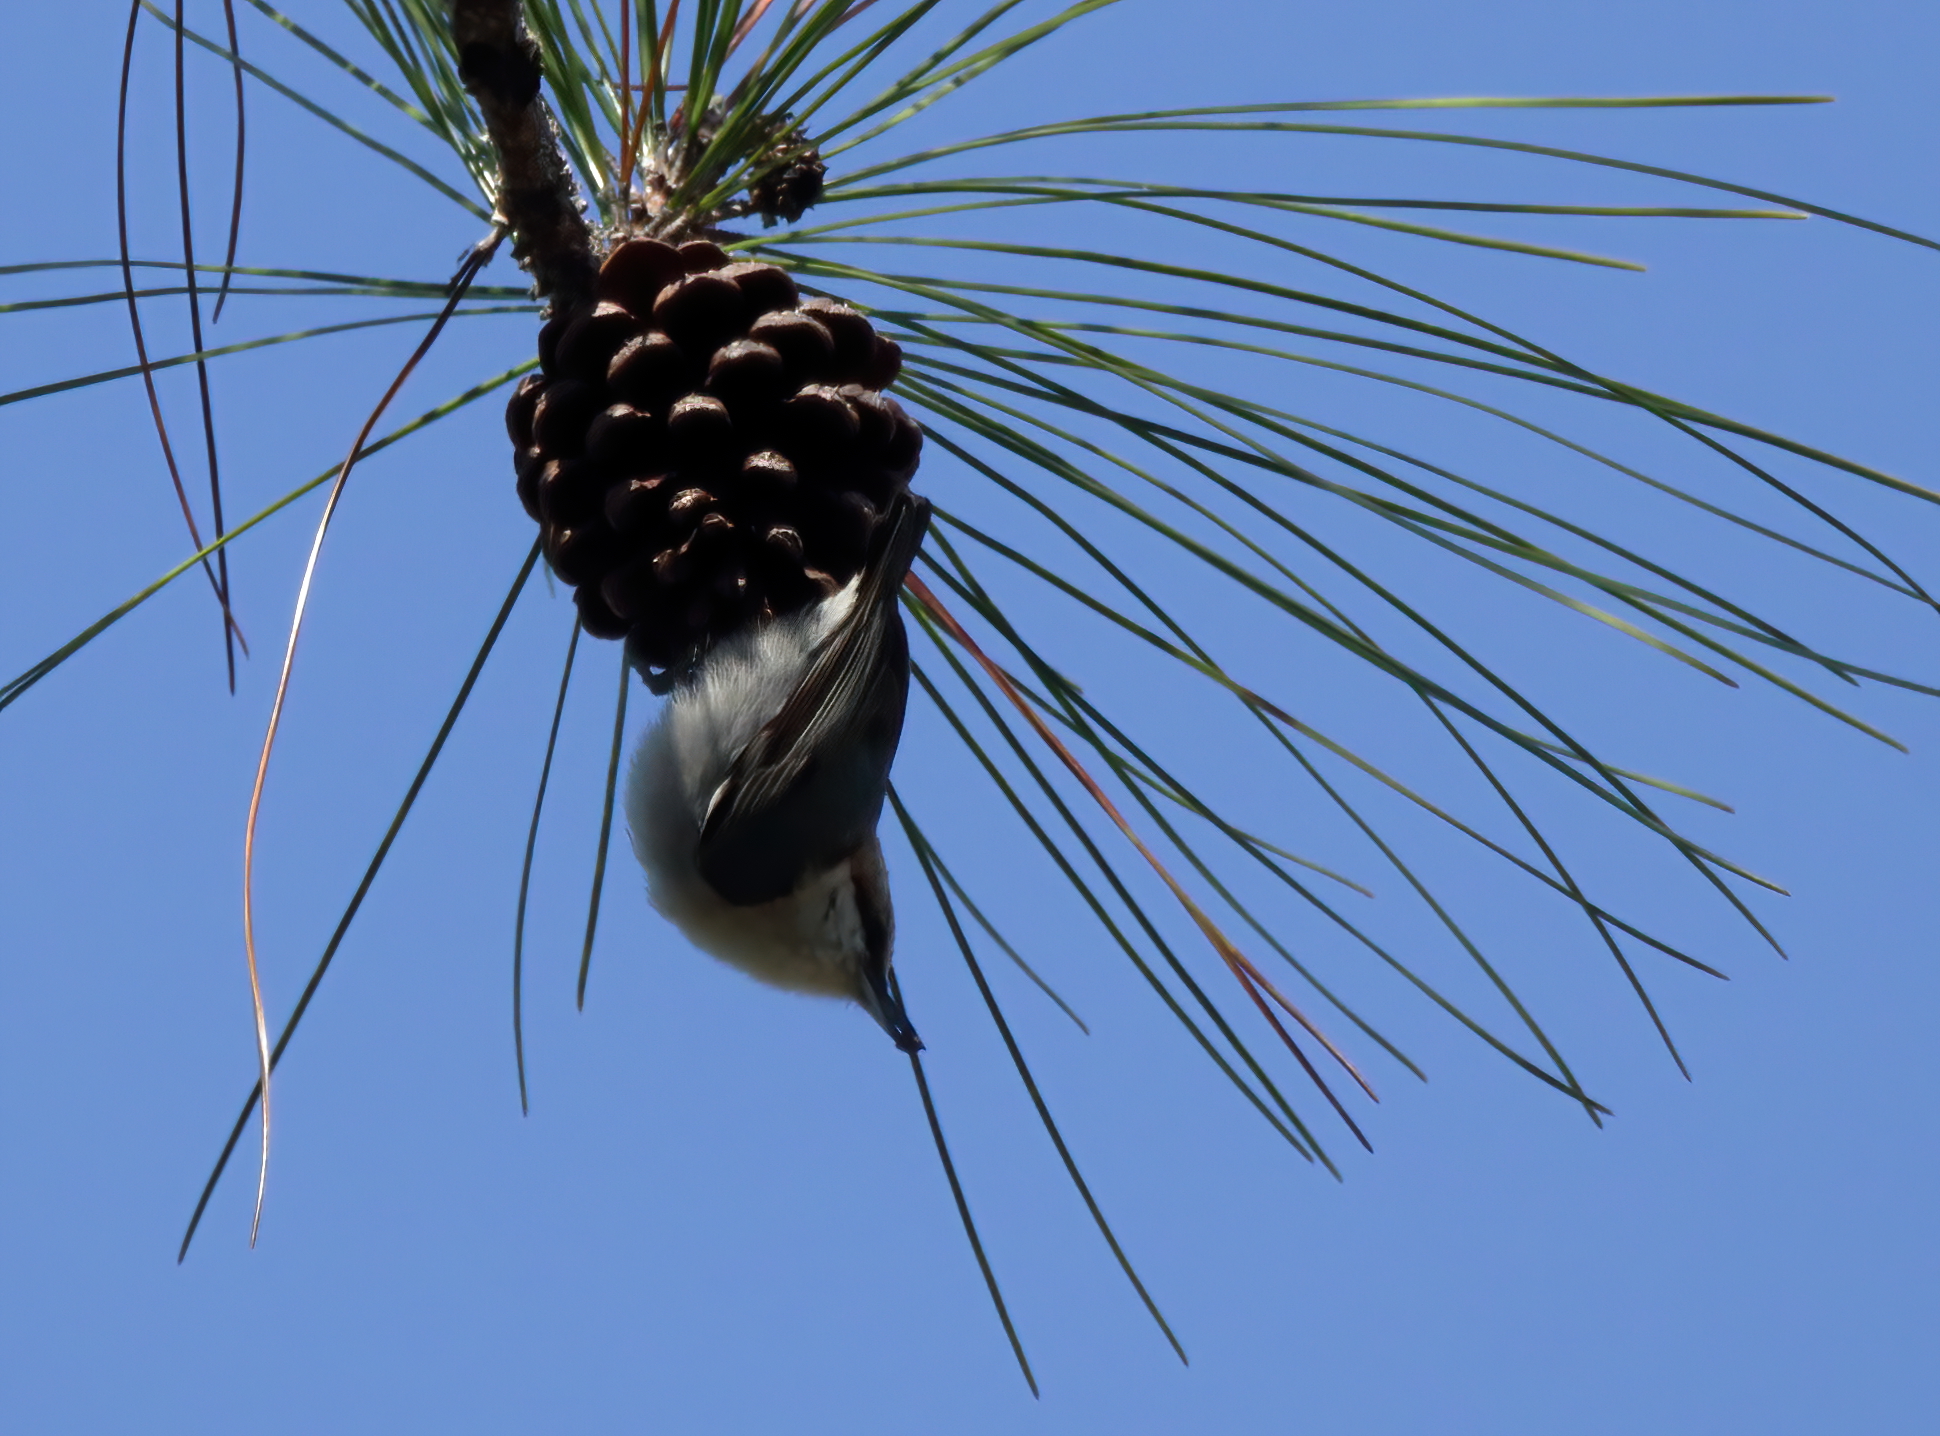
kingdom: Animalia
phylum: Chordata
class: Aves
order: Passeriformes
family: Sittidae
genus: Sitta
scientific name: Sitta pusilla
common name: Brown-headed nuthatch
